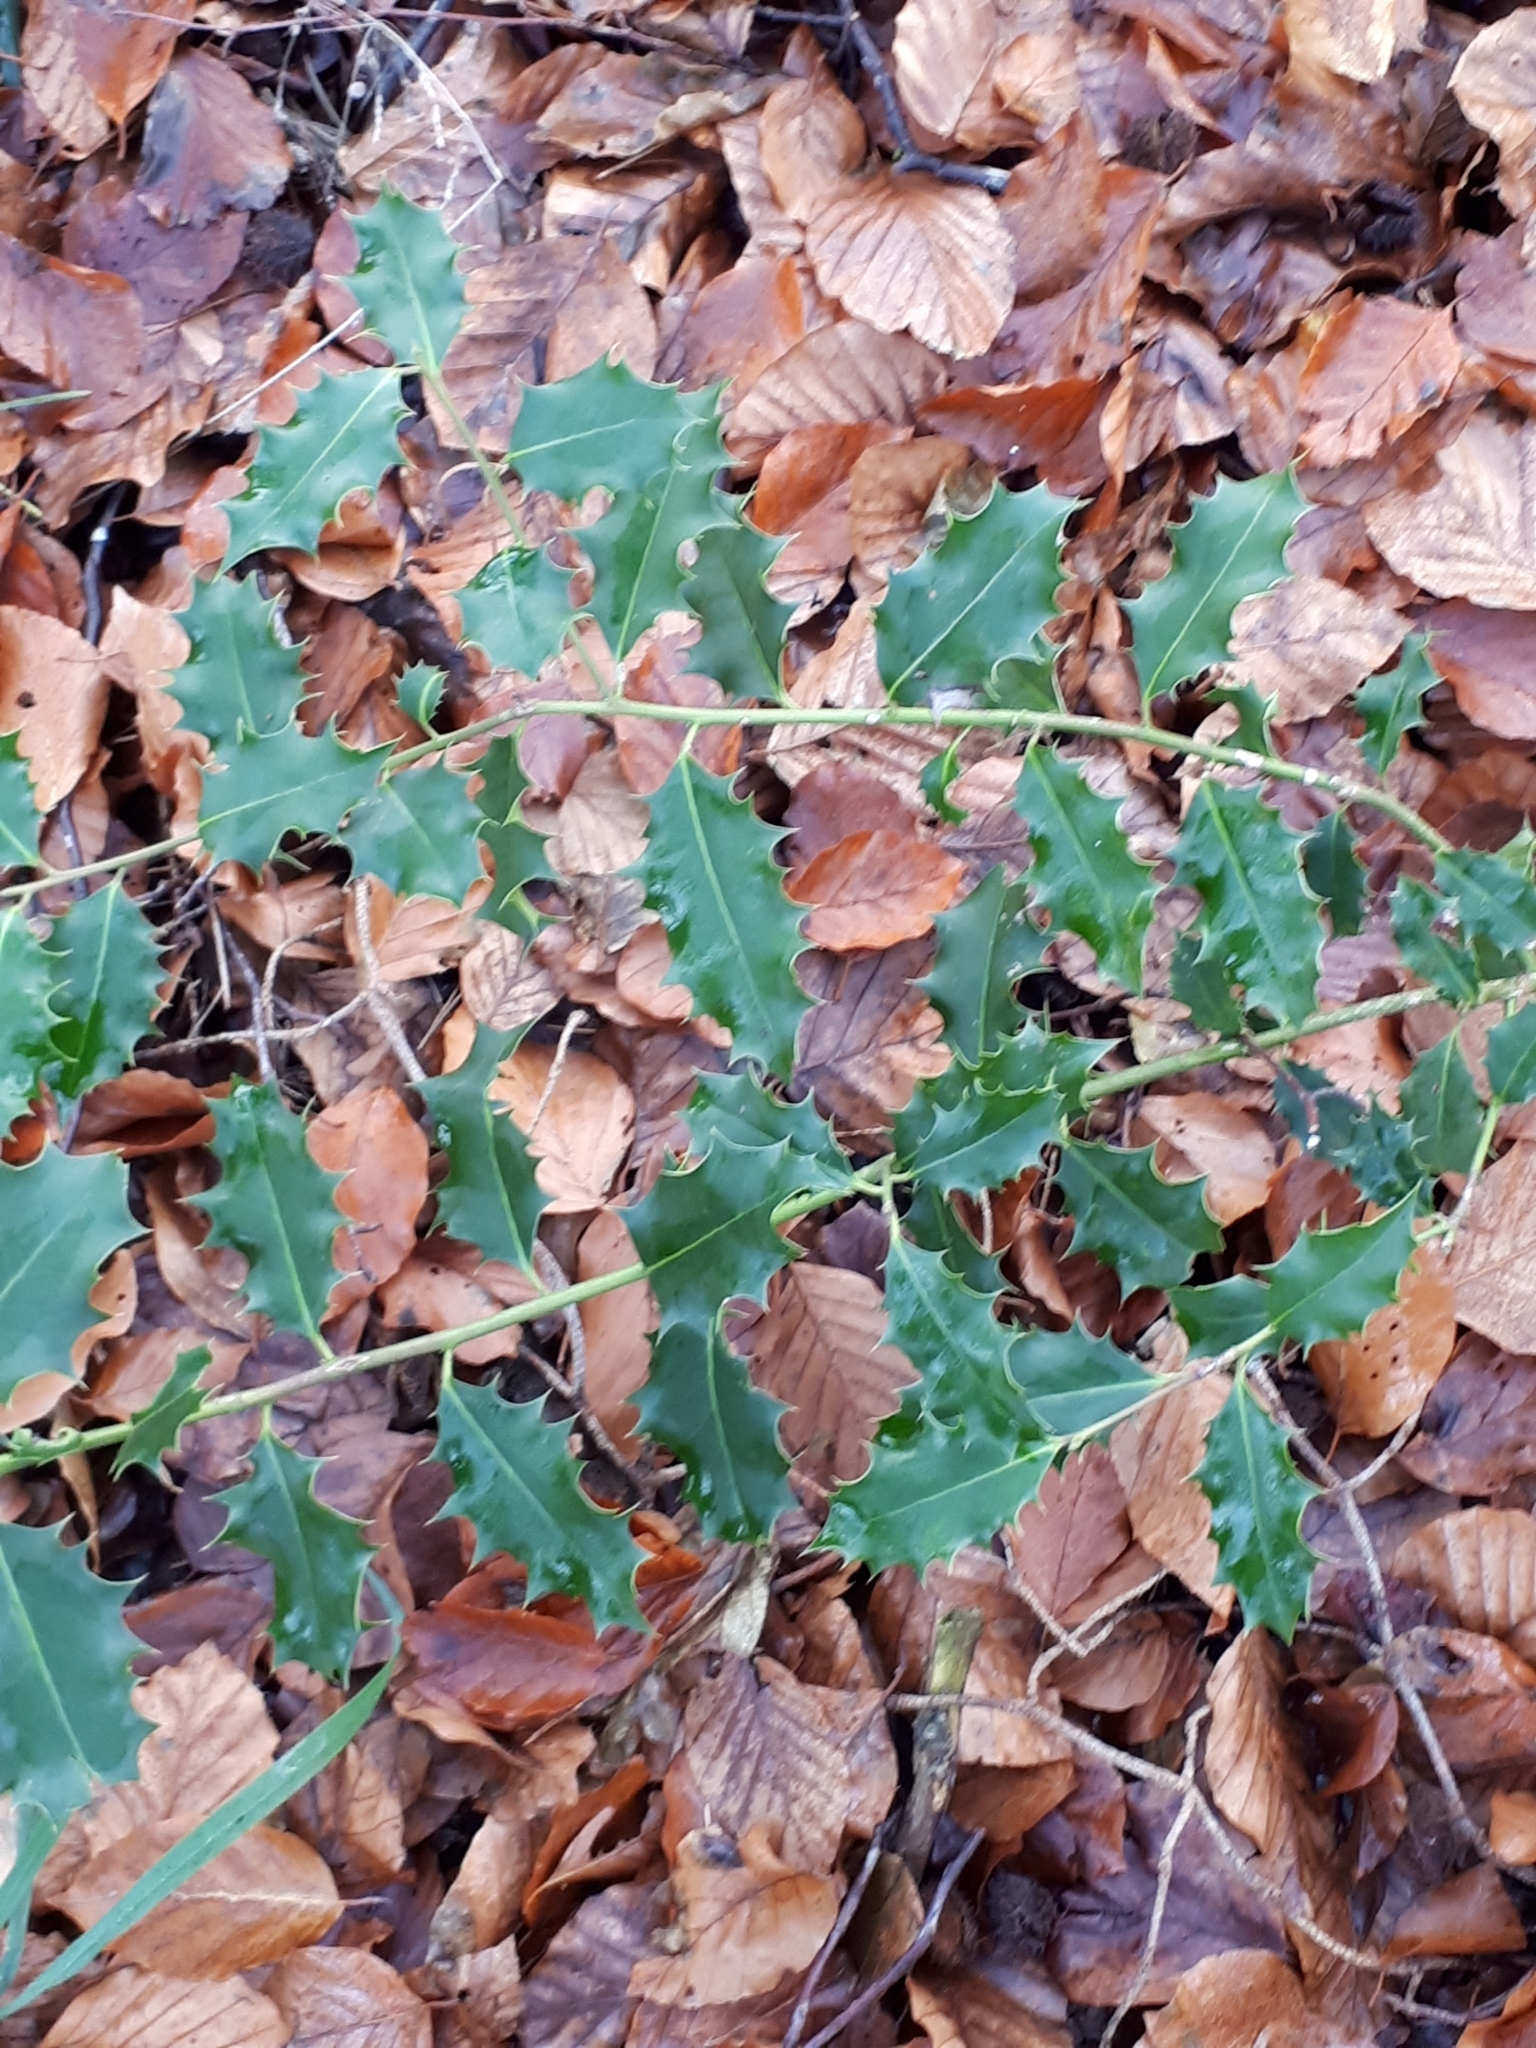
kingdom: Plantae
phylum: Tracheophyta
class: Magnoliopsida
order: Aquifoliales
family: Aquifoliaceae
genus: Ilex
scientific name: Ilex aquifolium
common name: English holly
